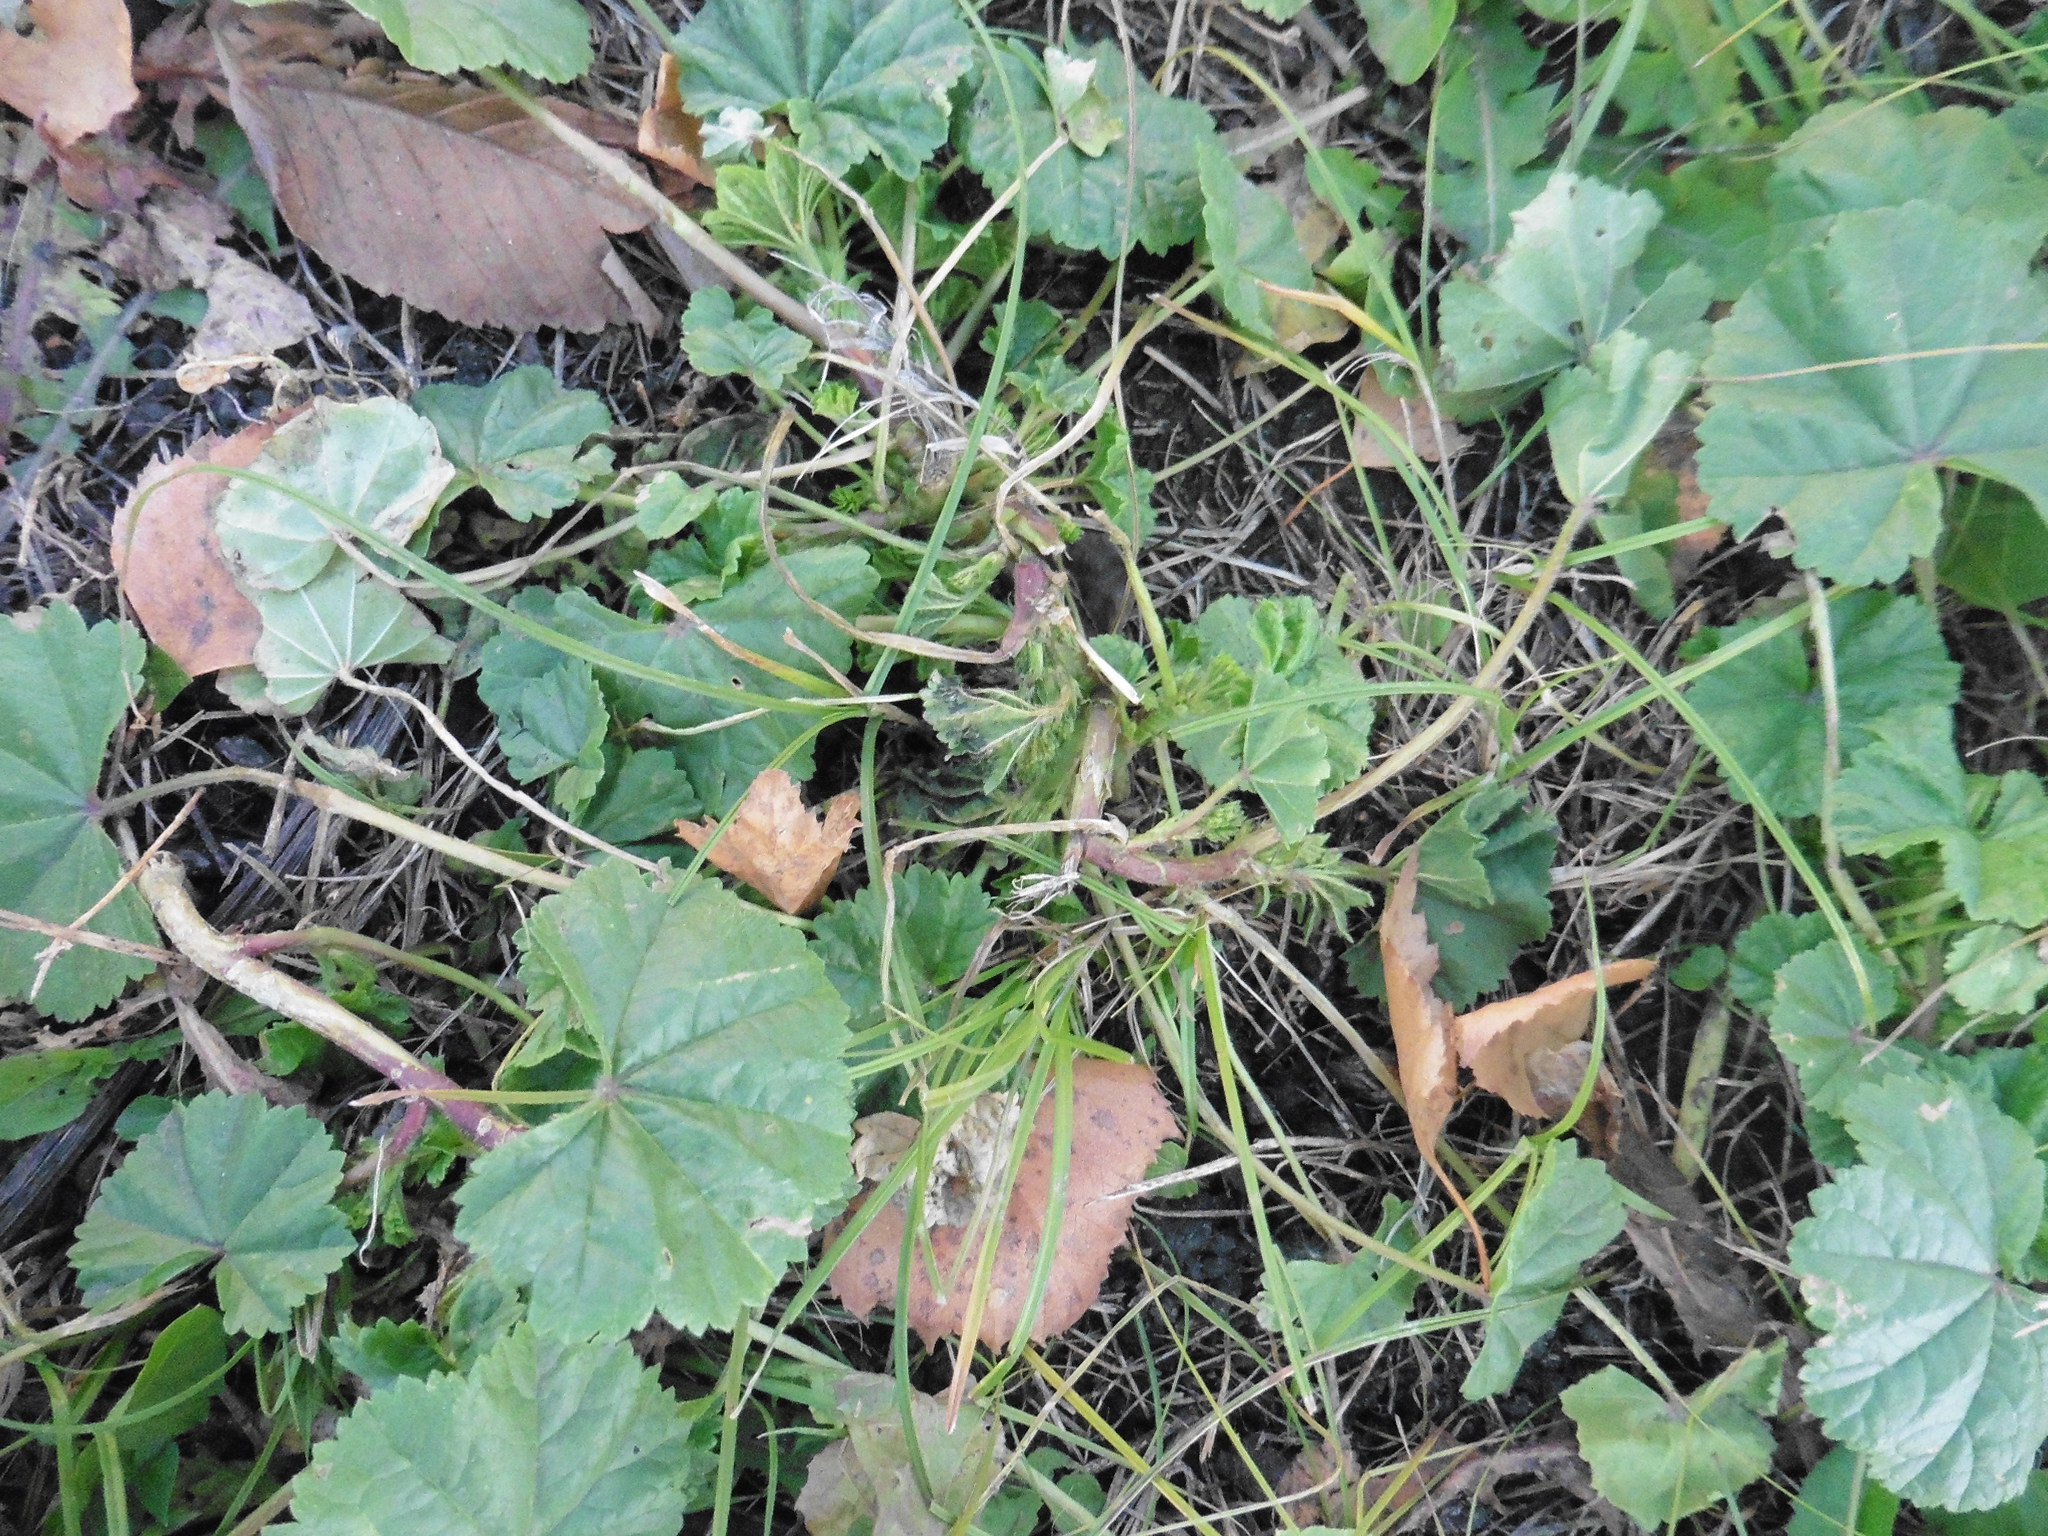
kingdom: Plantae
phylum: Tracheophyta
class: Magnoliopsida
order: Malvales
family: Malvaceae
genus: Malva
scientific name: Malva pusilla
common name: Small mallow
